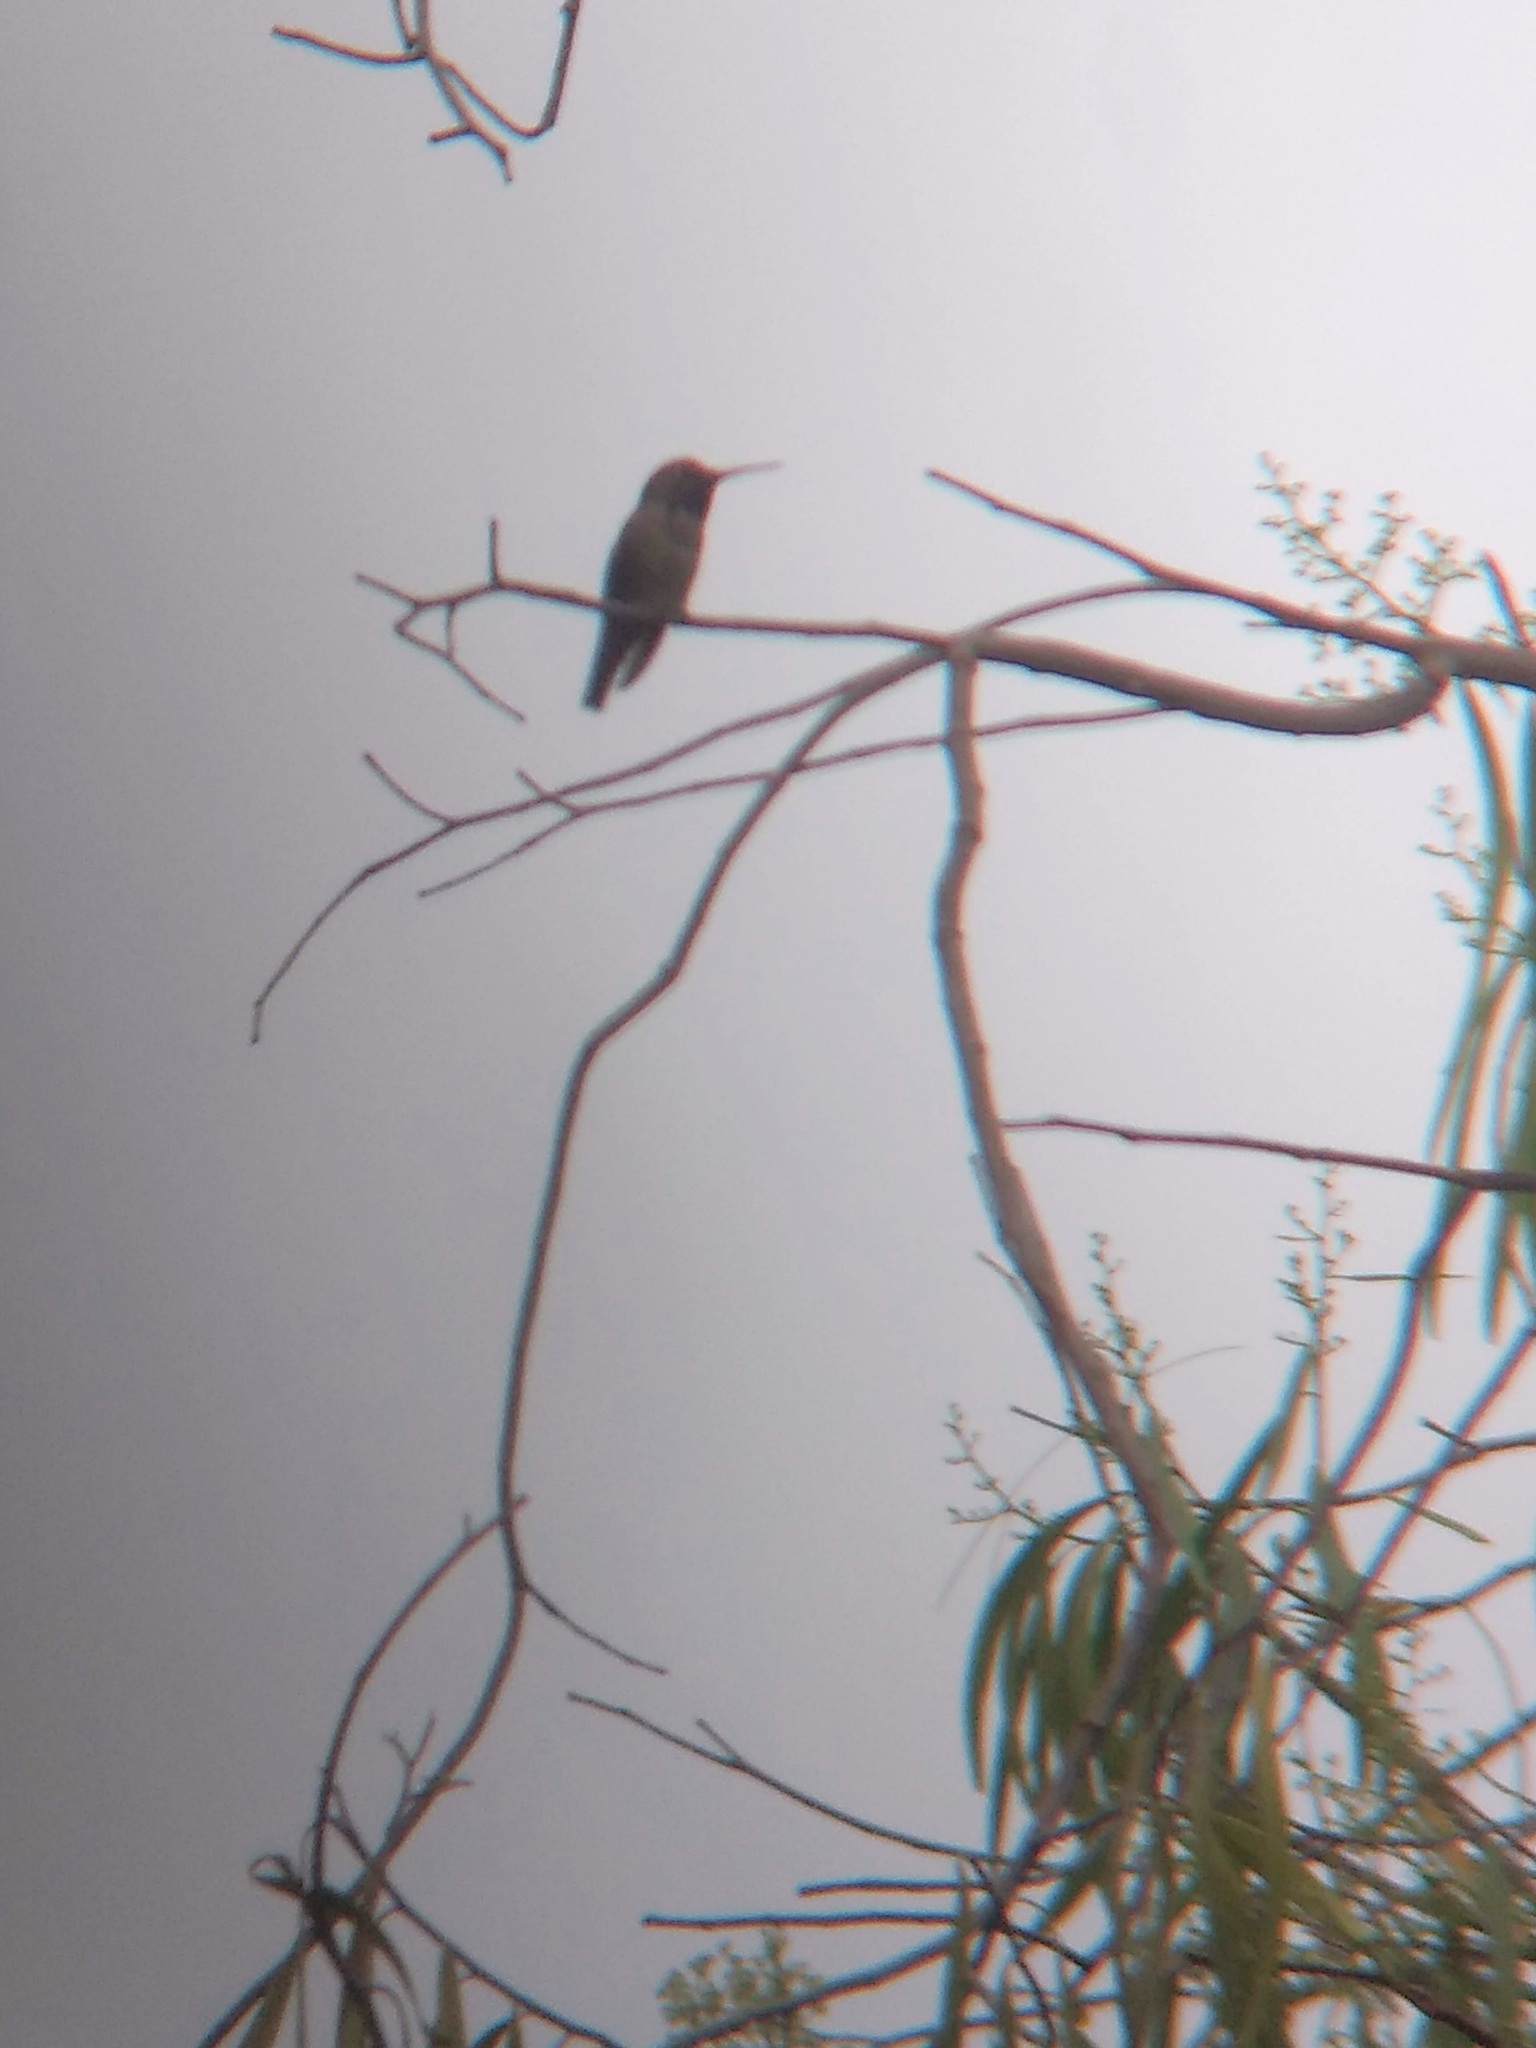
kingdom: Animalia
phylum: Chordata
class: Aves
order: Apodiformes
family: Trochilidae
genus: Calypte
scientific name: Calypte anna
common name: Anna's hummingbird
